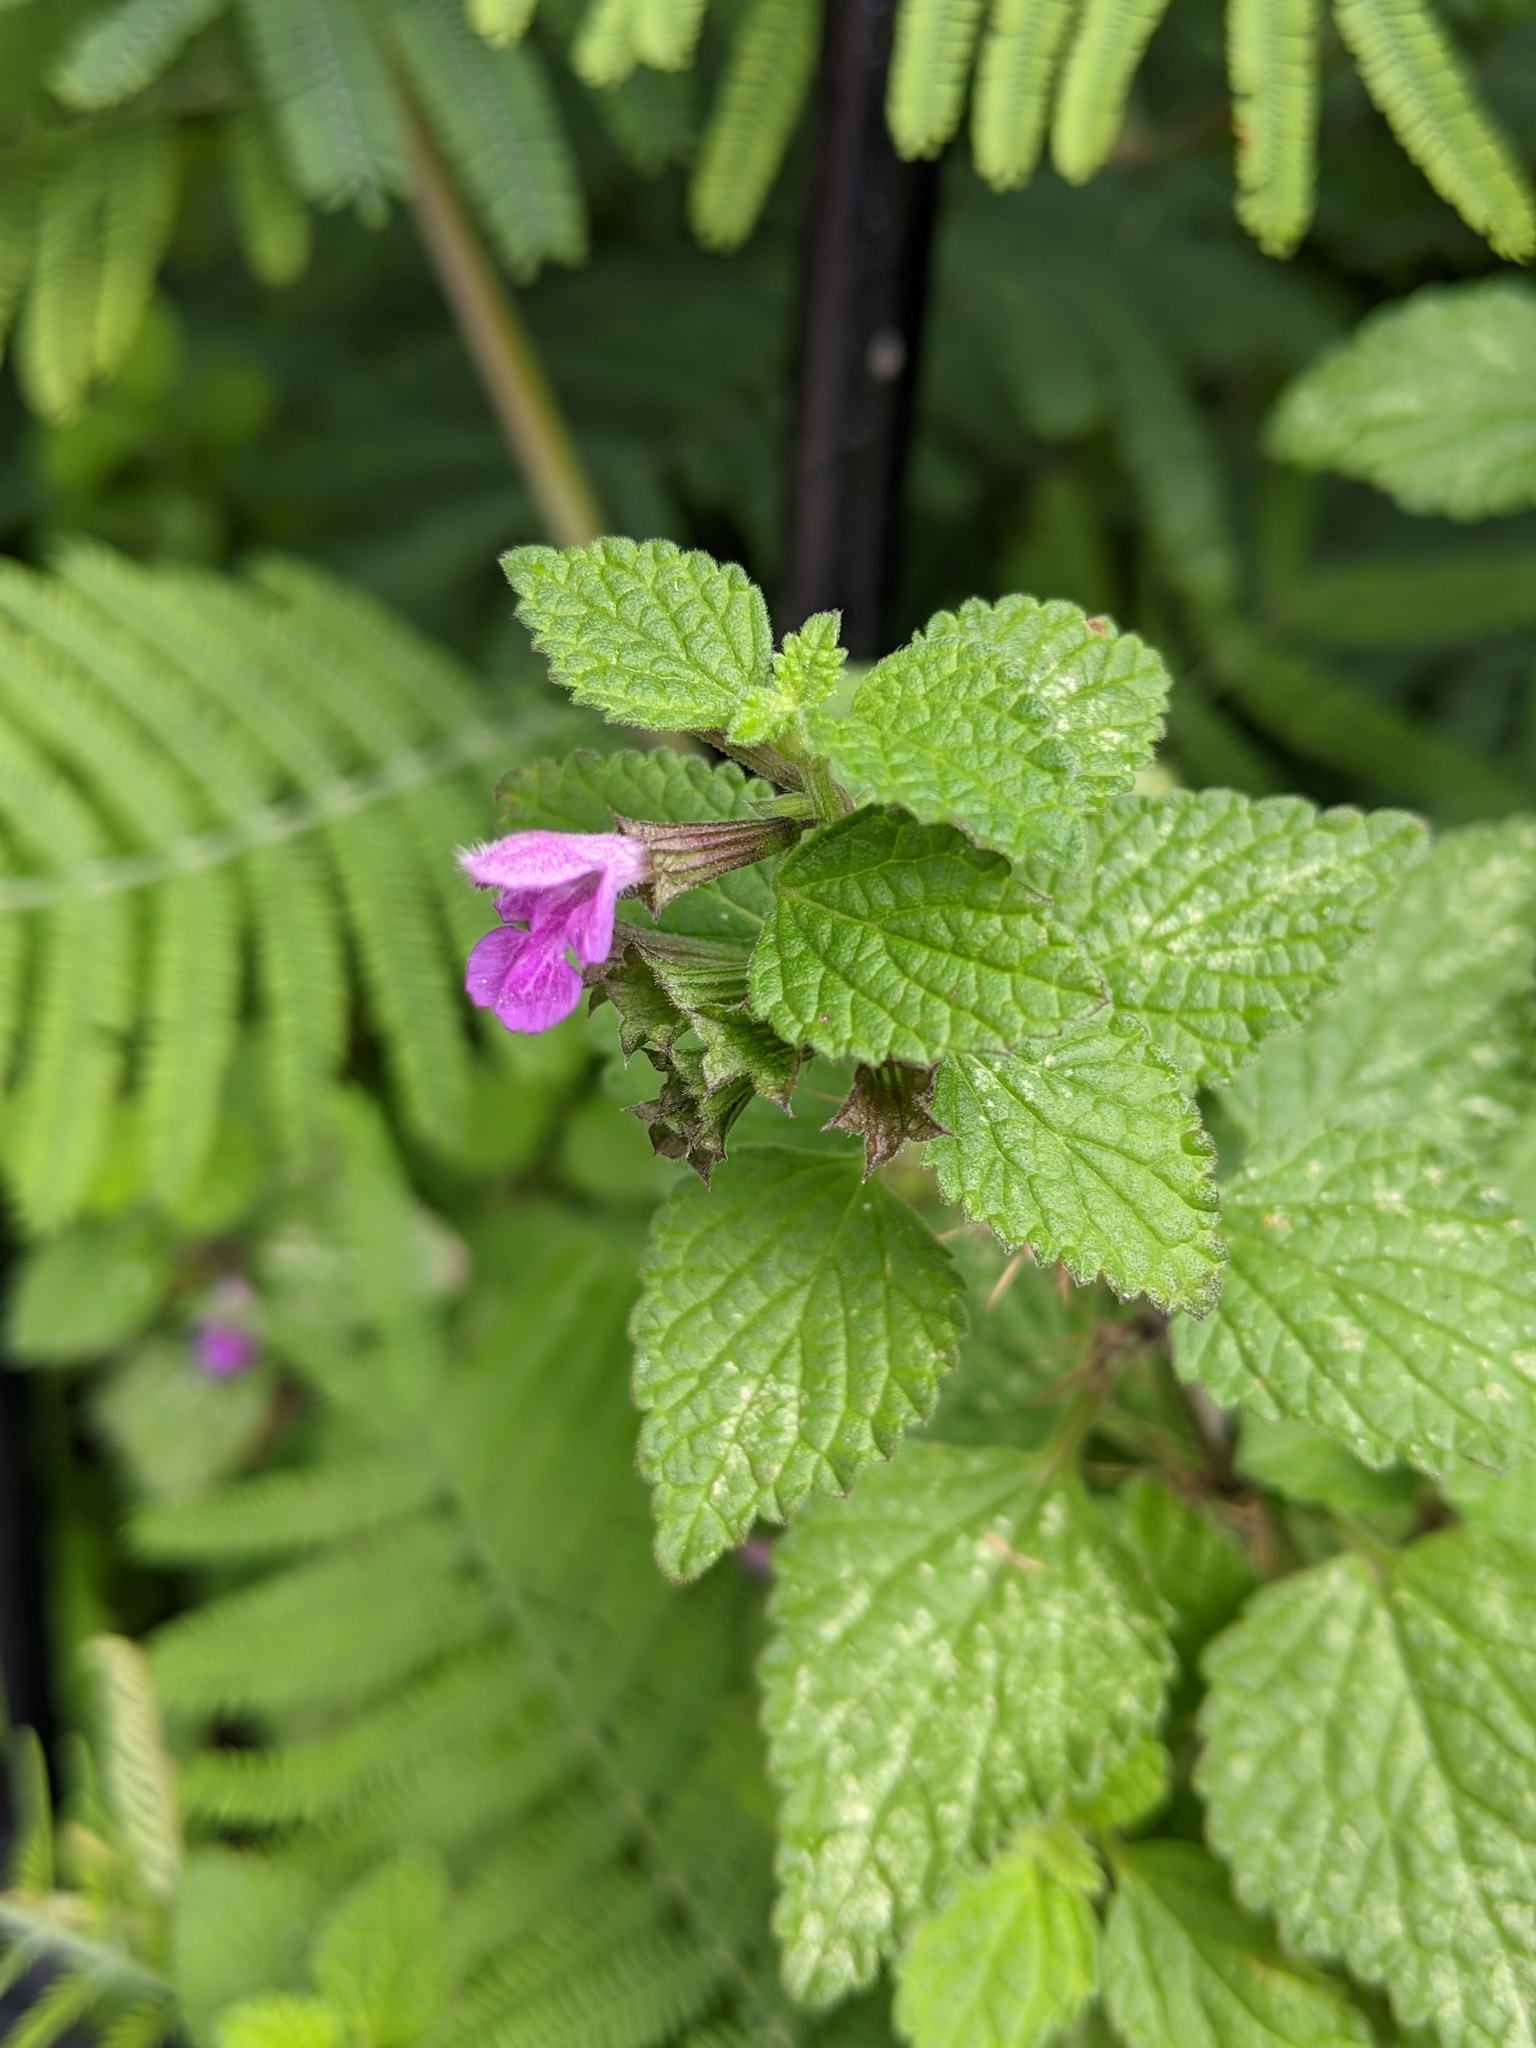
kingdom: Plantae
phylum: Tracheophyta
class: Magnoliopsida
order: Lamiales
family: Lamiaceae
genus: Ballota
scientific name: Ballota nigra
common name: Black horehound
